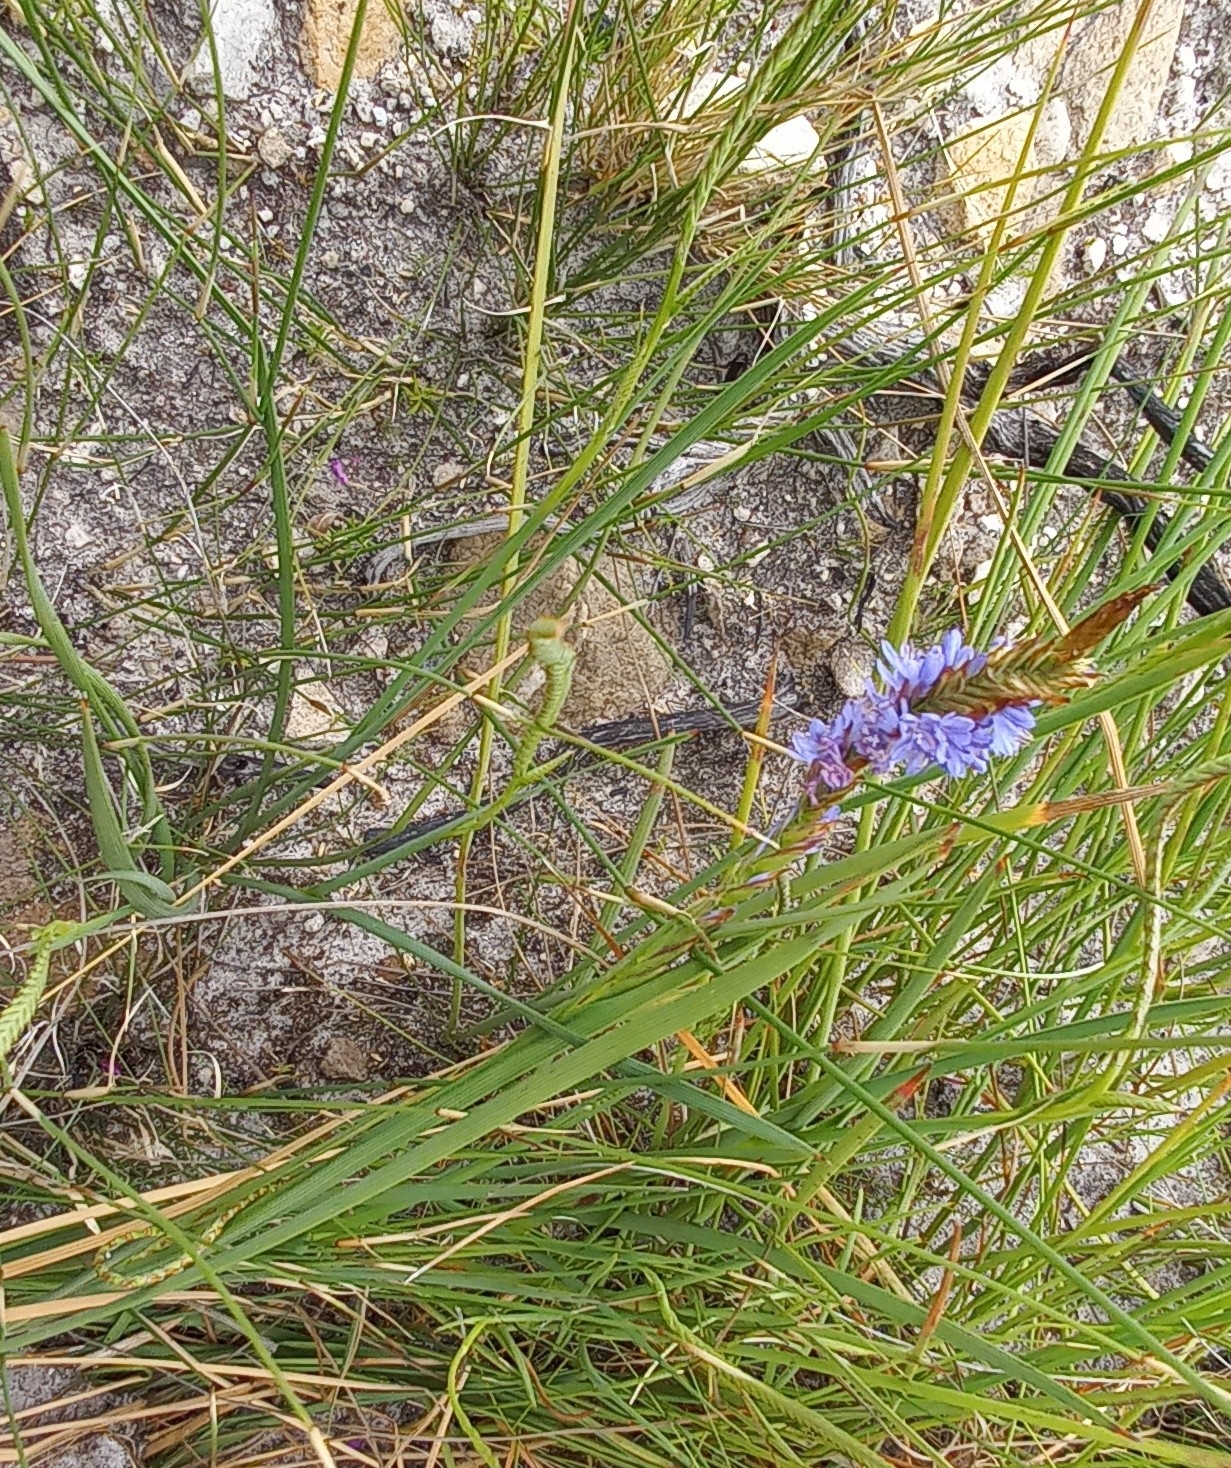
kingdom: Plantae
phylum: Tracheophyta
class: Liliopsida
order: Asparagales
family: Iridaceae
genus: Micranthus
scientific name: Micranthus alopecuroides
